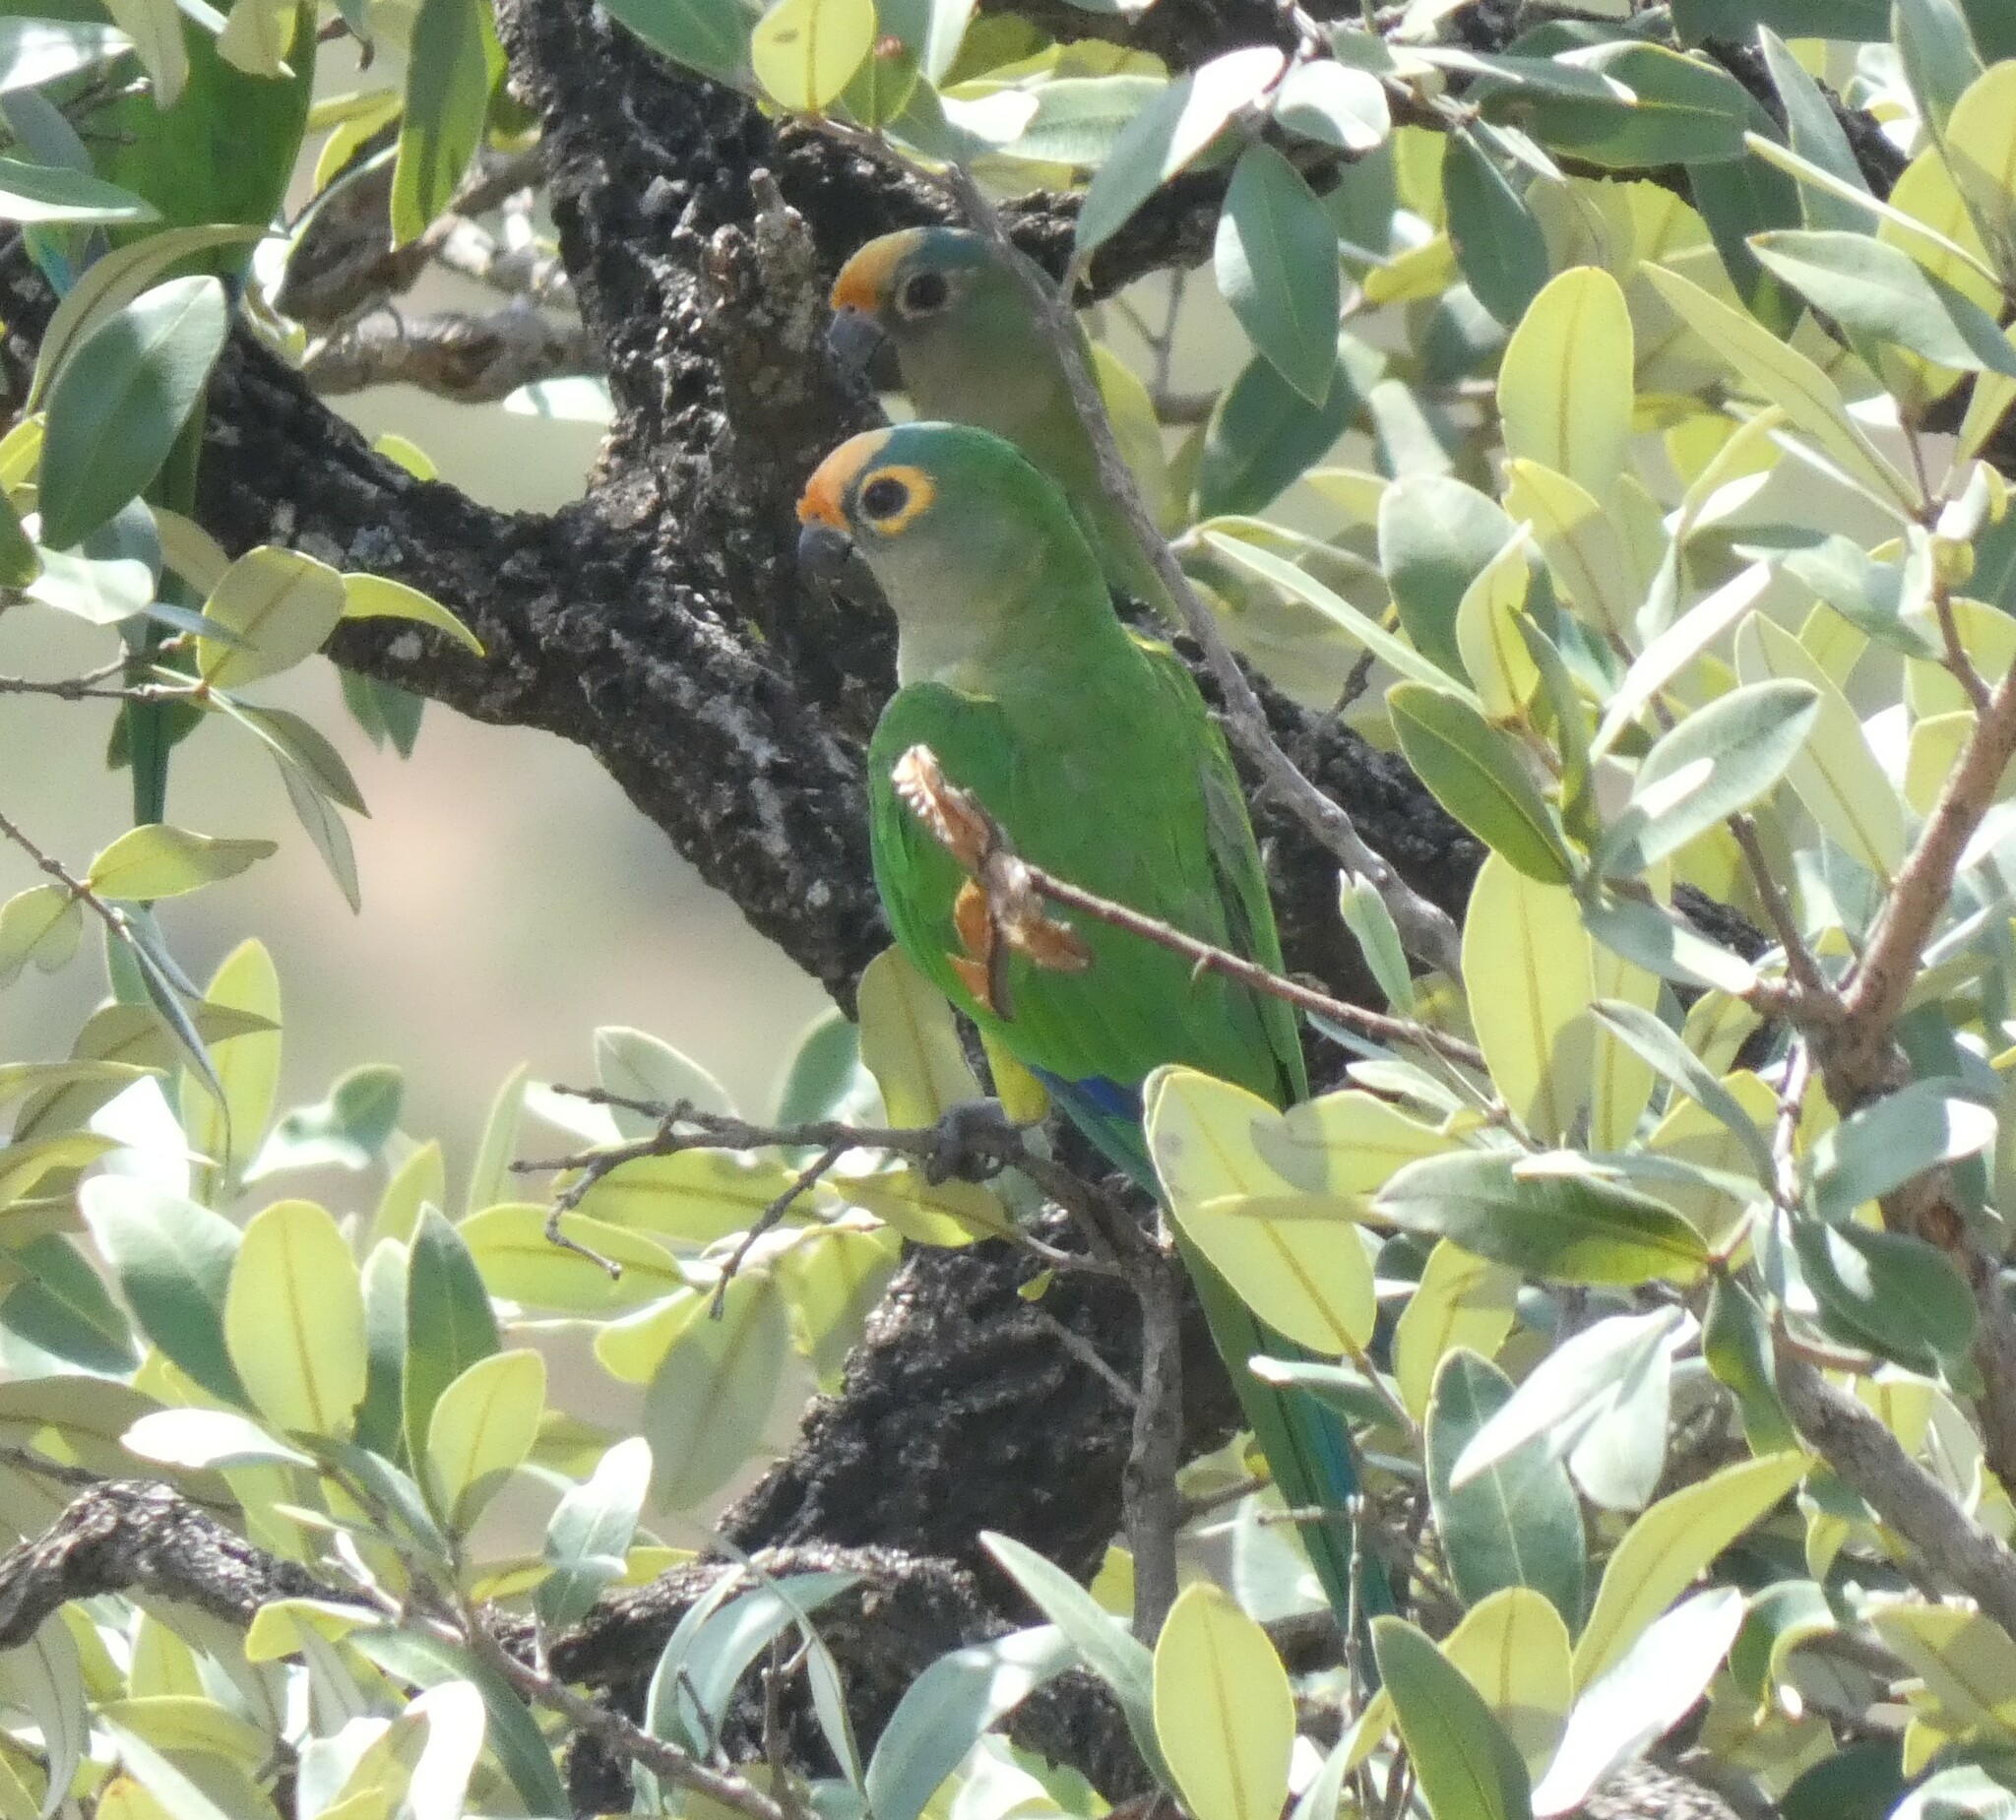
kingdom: Animalia
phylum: Chordata
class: Aves
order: Psittaciformes
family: Psittacidae
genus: Aratinga
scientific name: Aratinga aurea
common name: Peach-fronted parakeet
